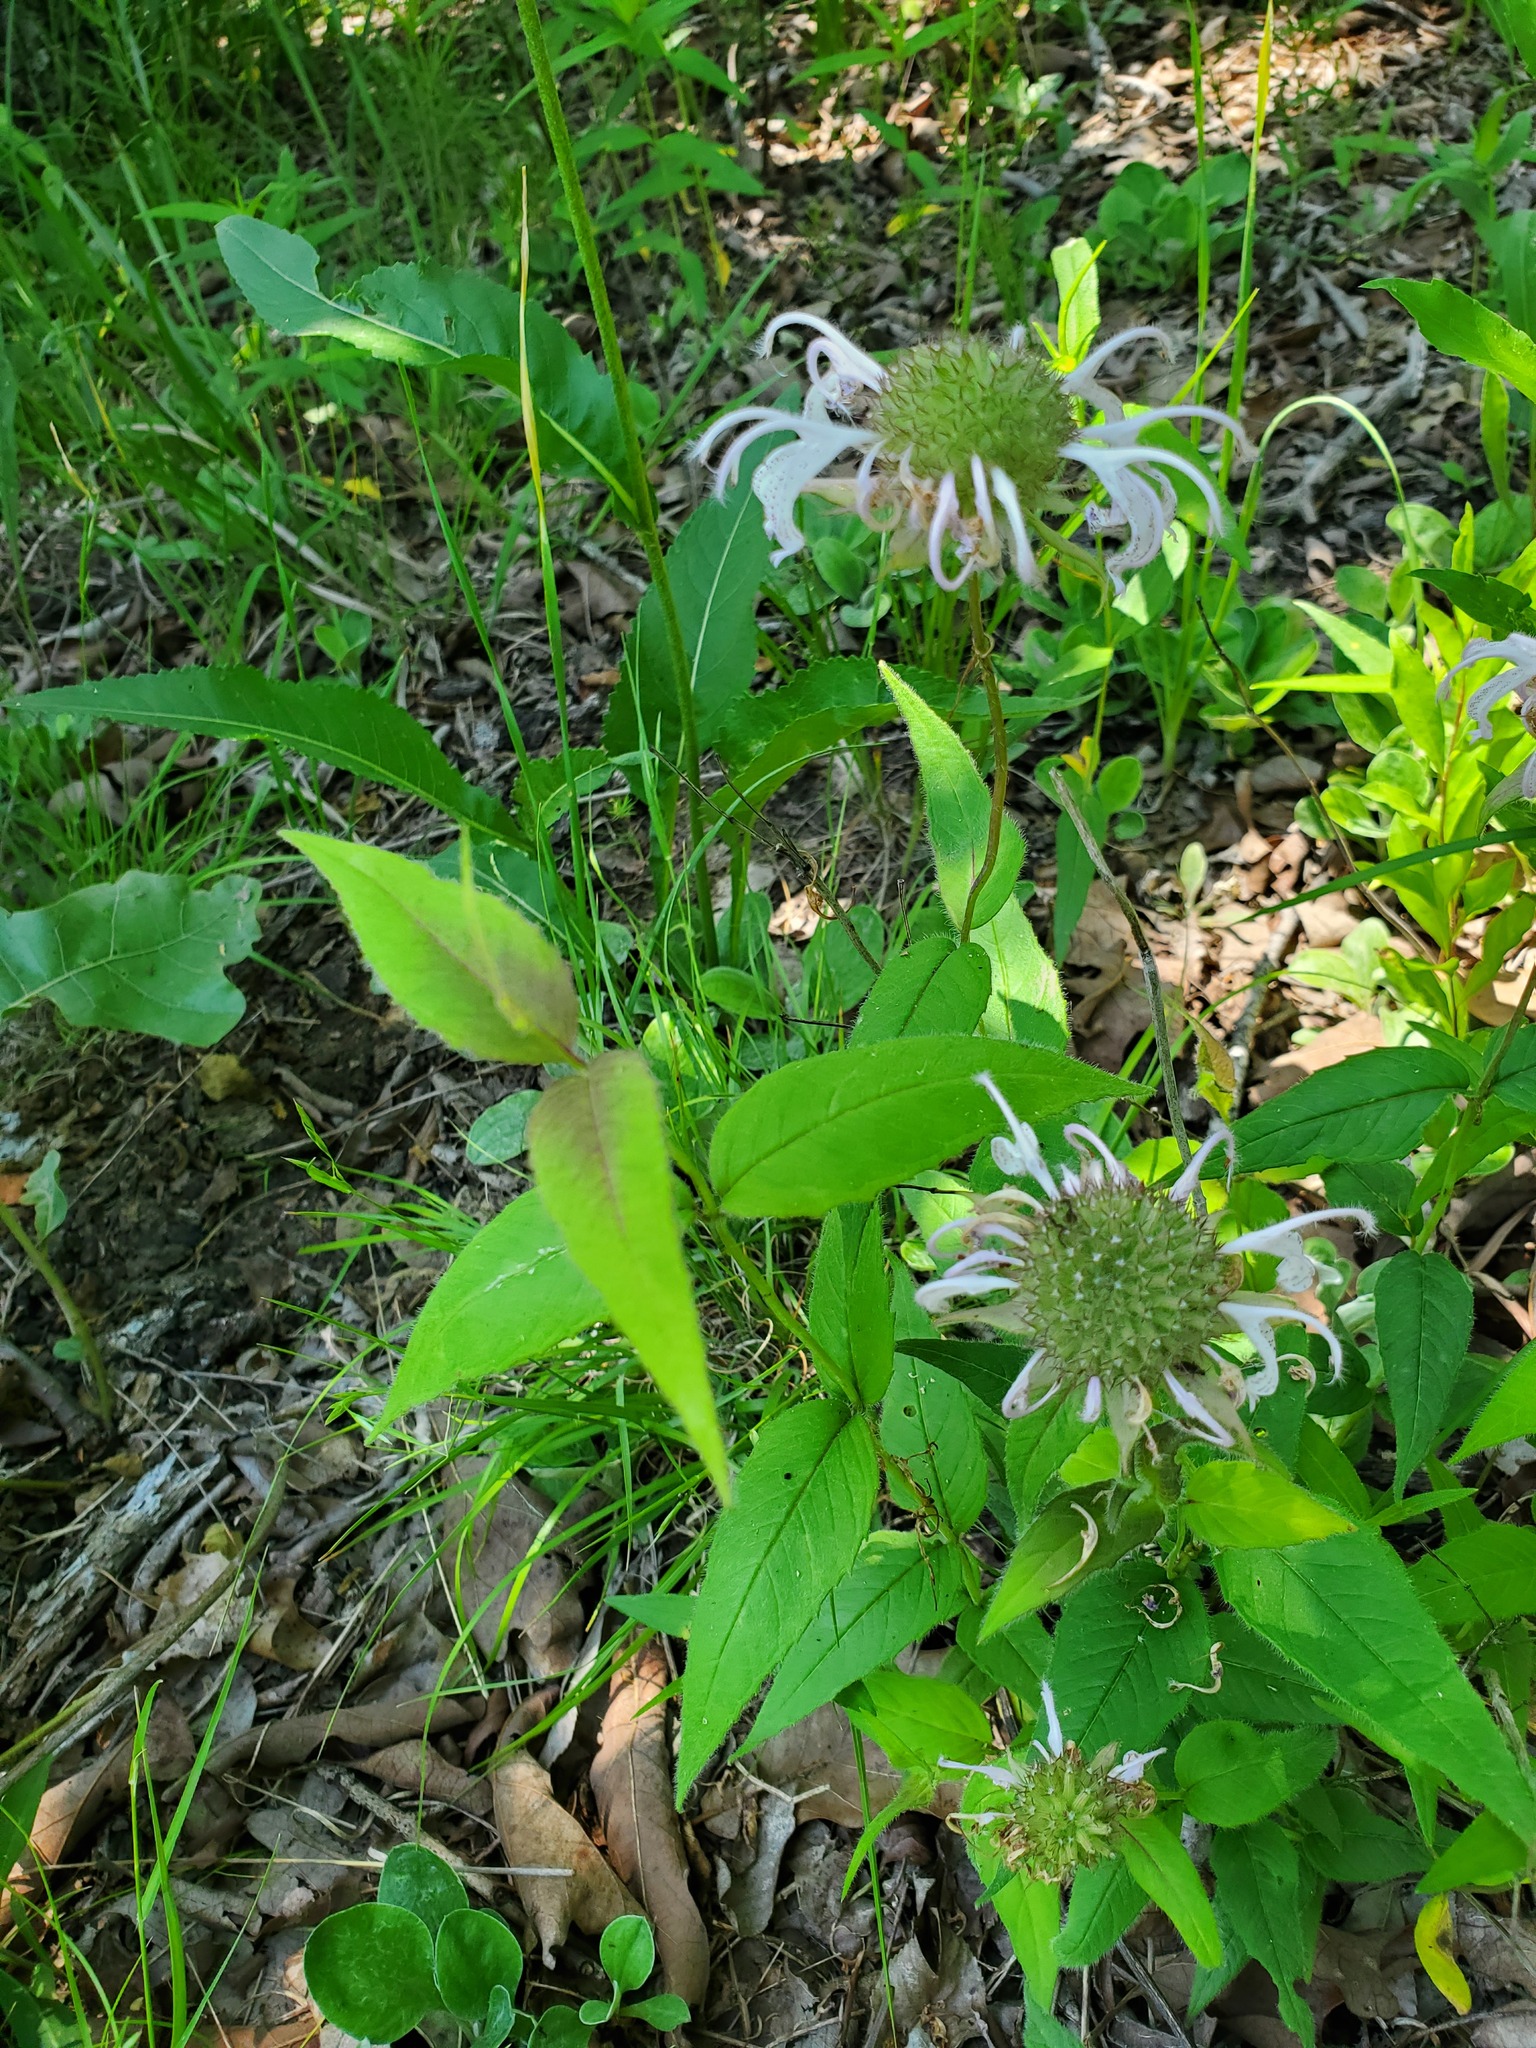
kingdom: Plantae
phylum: Tracheophyta
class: Magnoliopsida
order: Lamiales
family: Lamiaceae
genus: Monarda
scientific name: Monarda bradburiana
